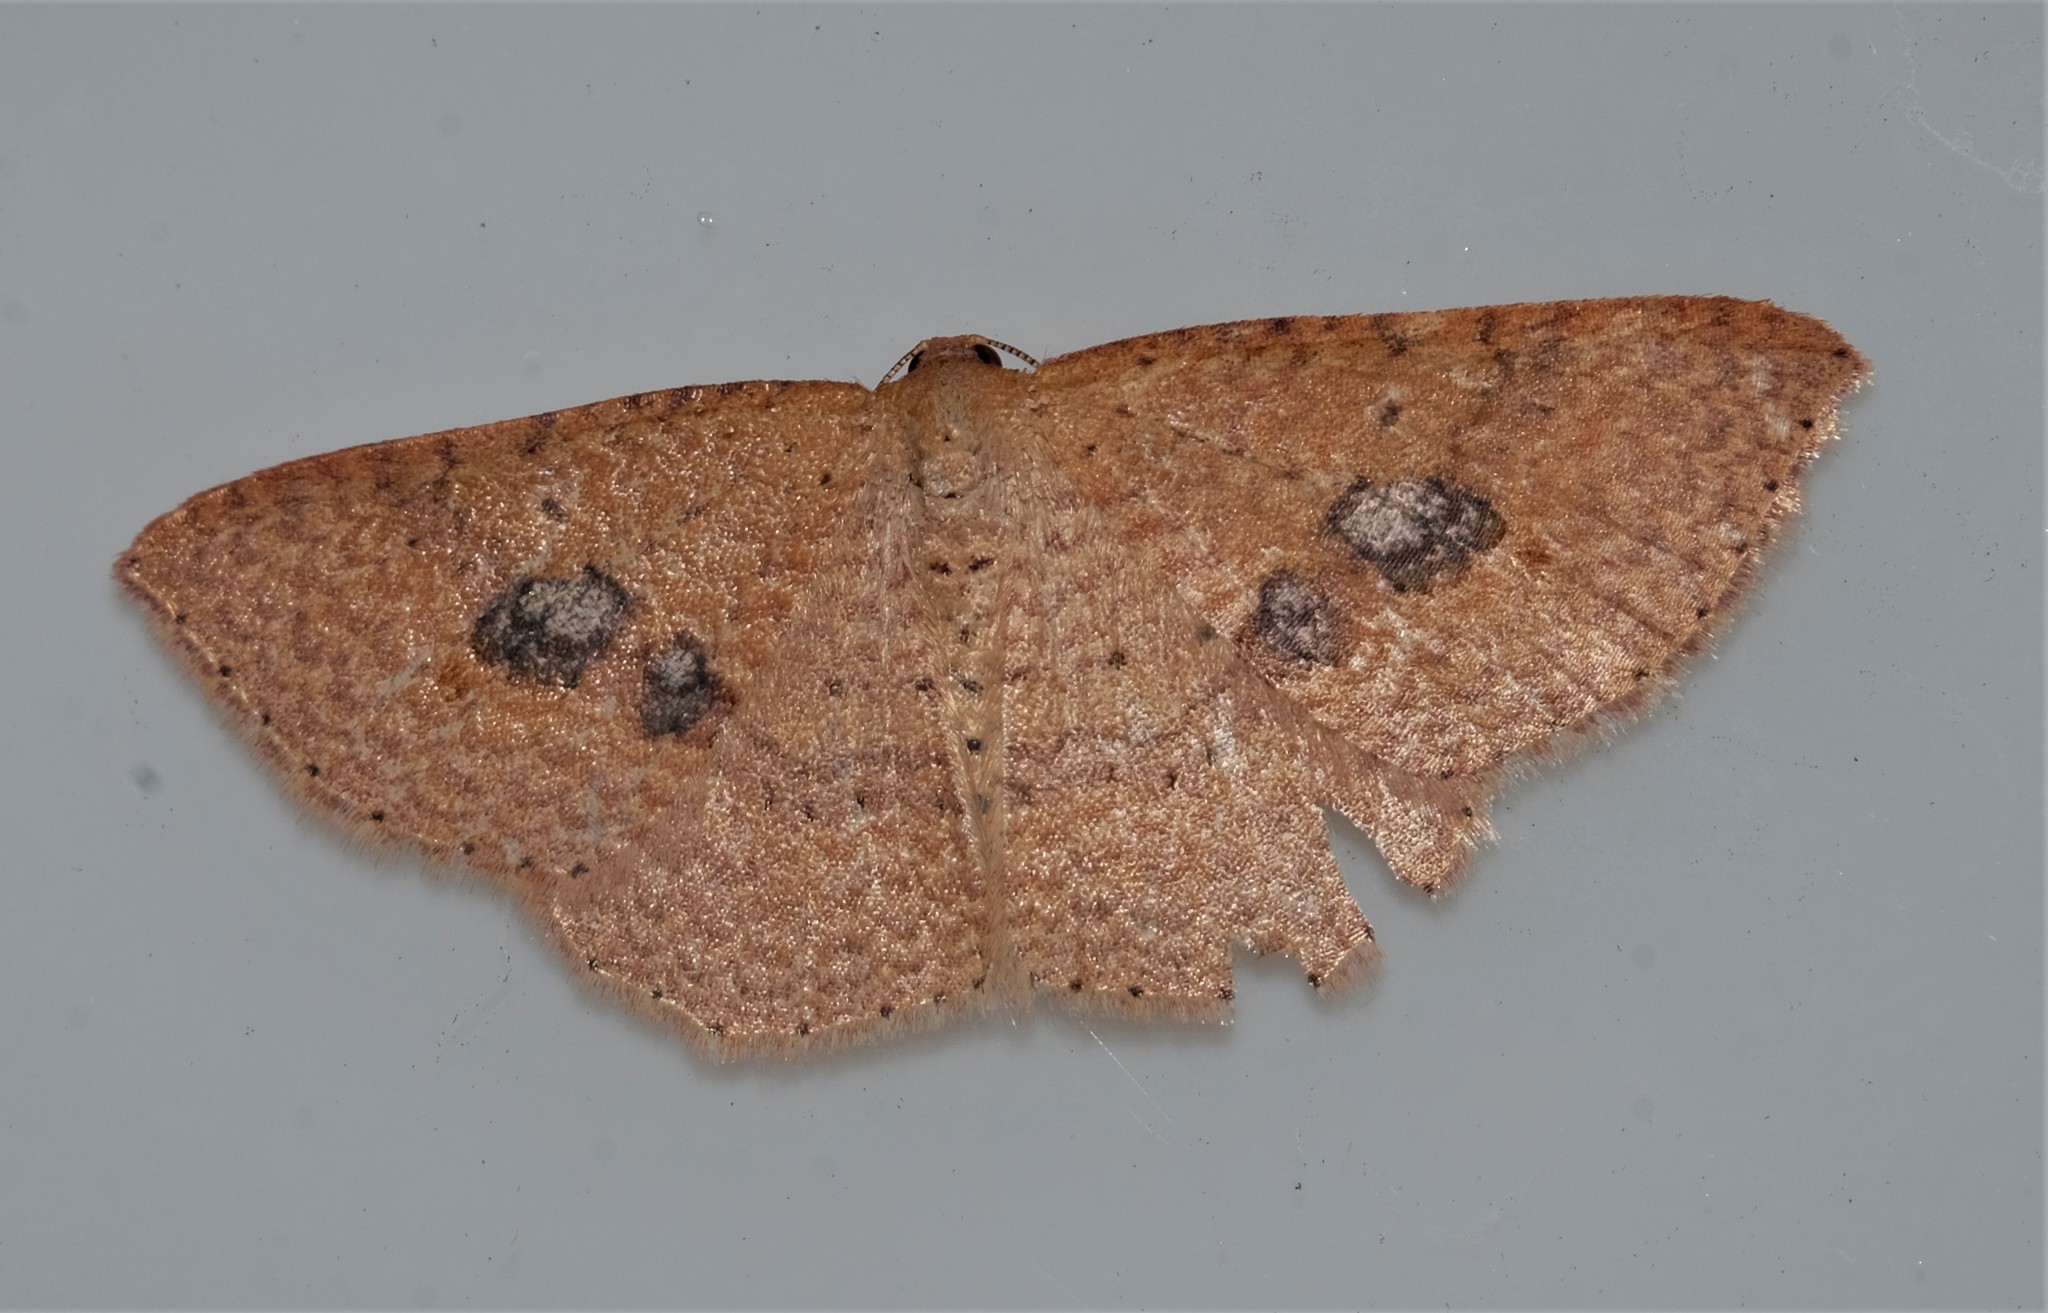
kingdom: Animalia
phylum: Arthropoda
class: Insecta
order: Lepidoptera
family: Geometridae
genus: Epicyme
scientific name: Epicyme rubropunctaria
